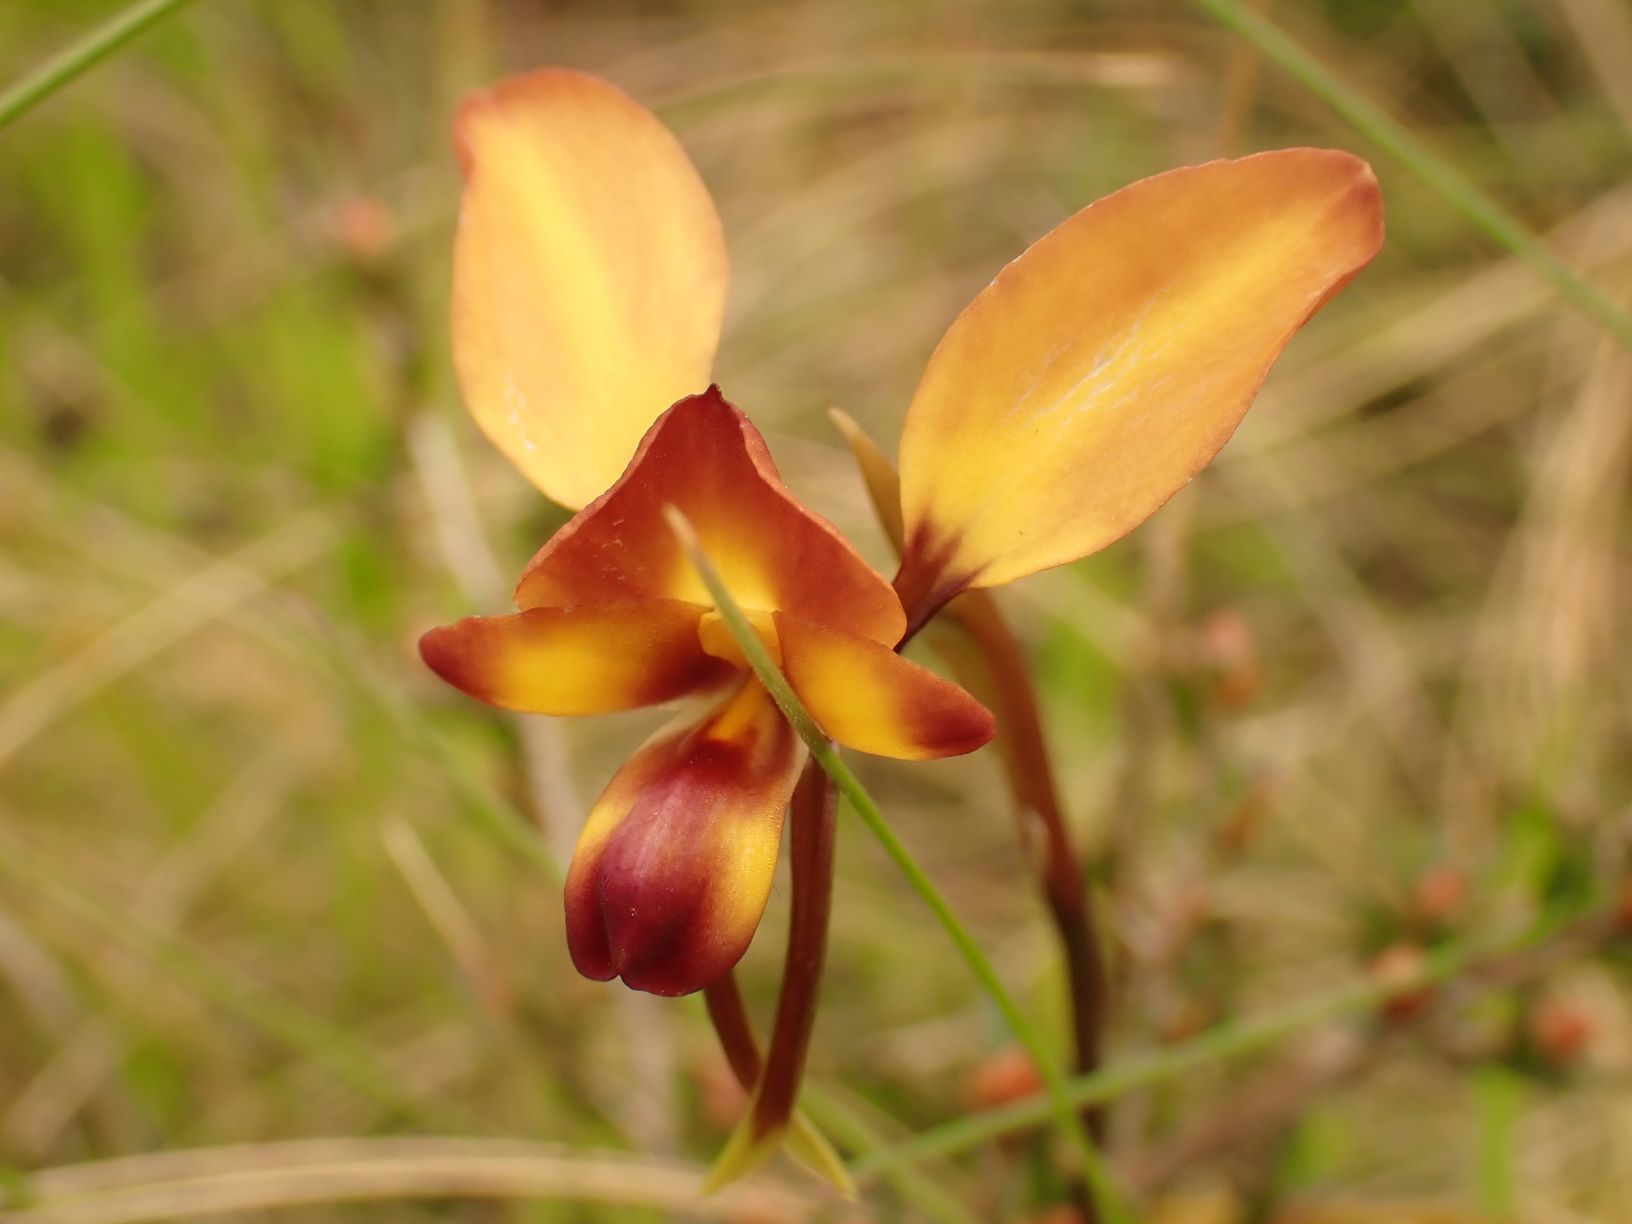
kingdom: Plantae
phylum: Tracheophyta
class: Liliopsida
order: Asparagales
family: Orchidaceae
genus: Diuris
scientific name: Diuris orientis
